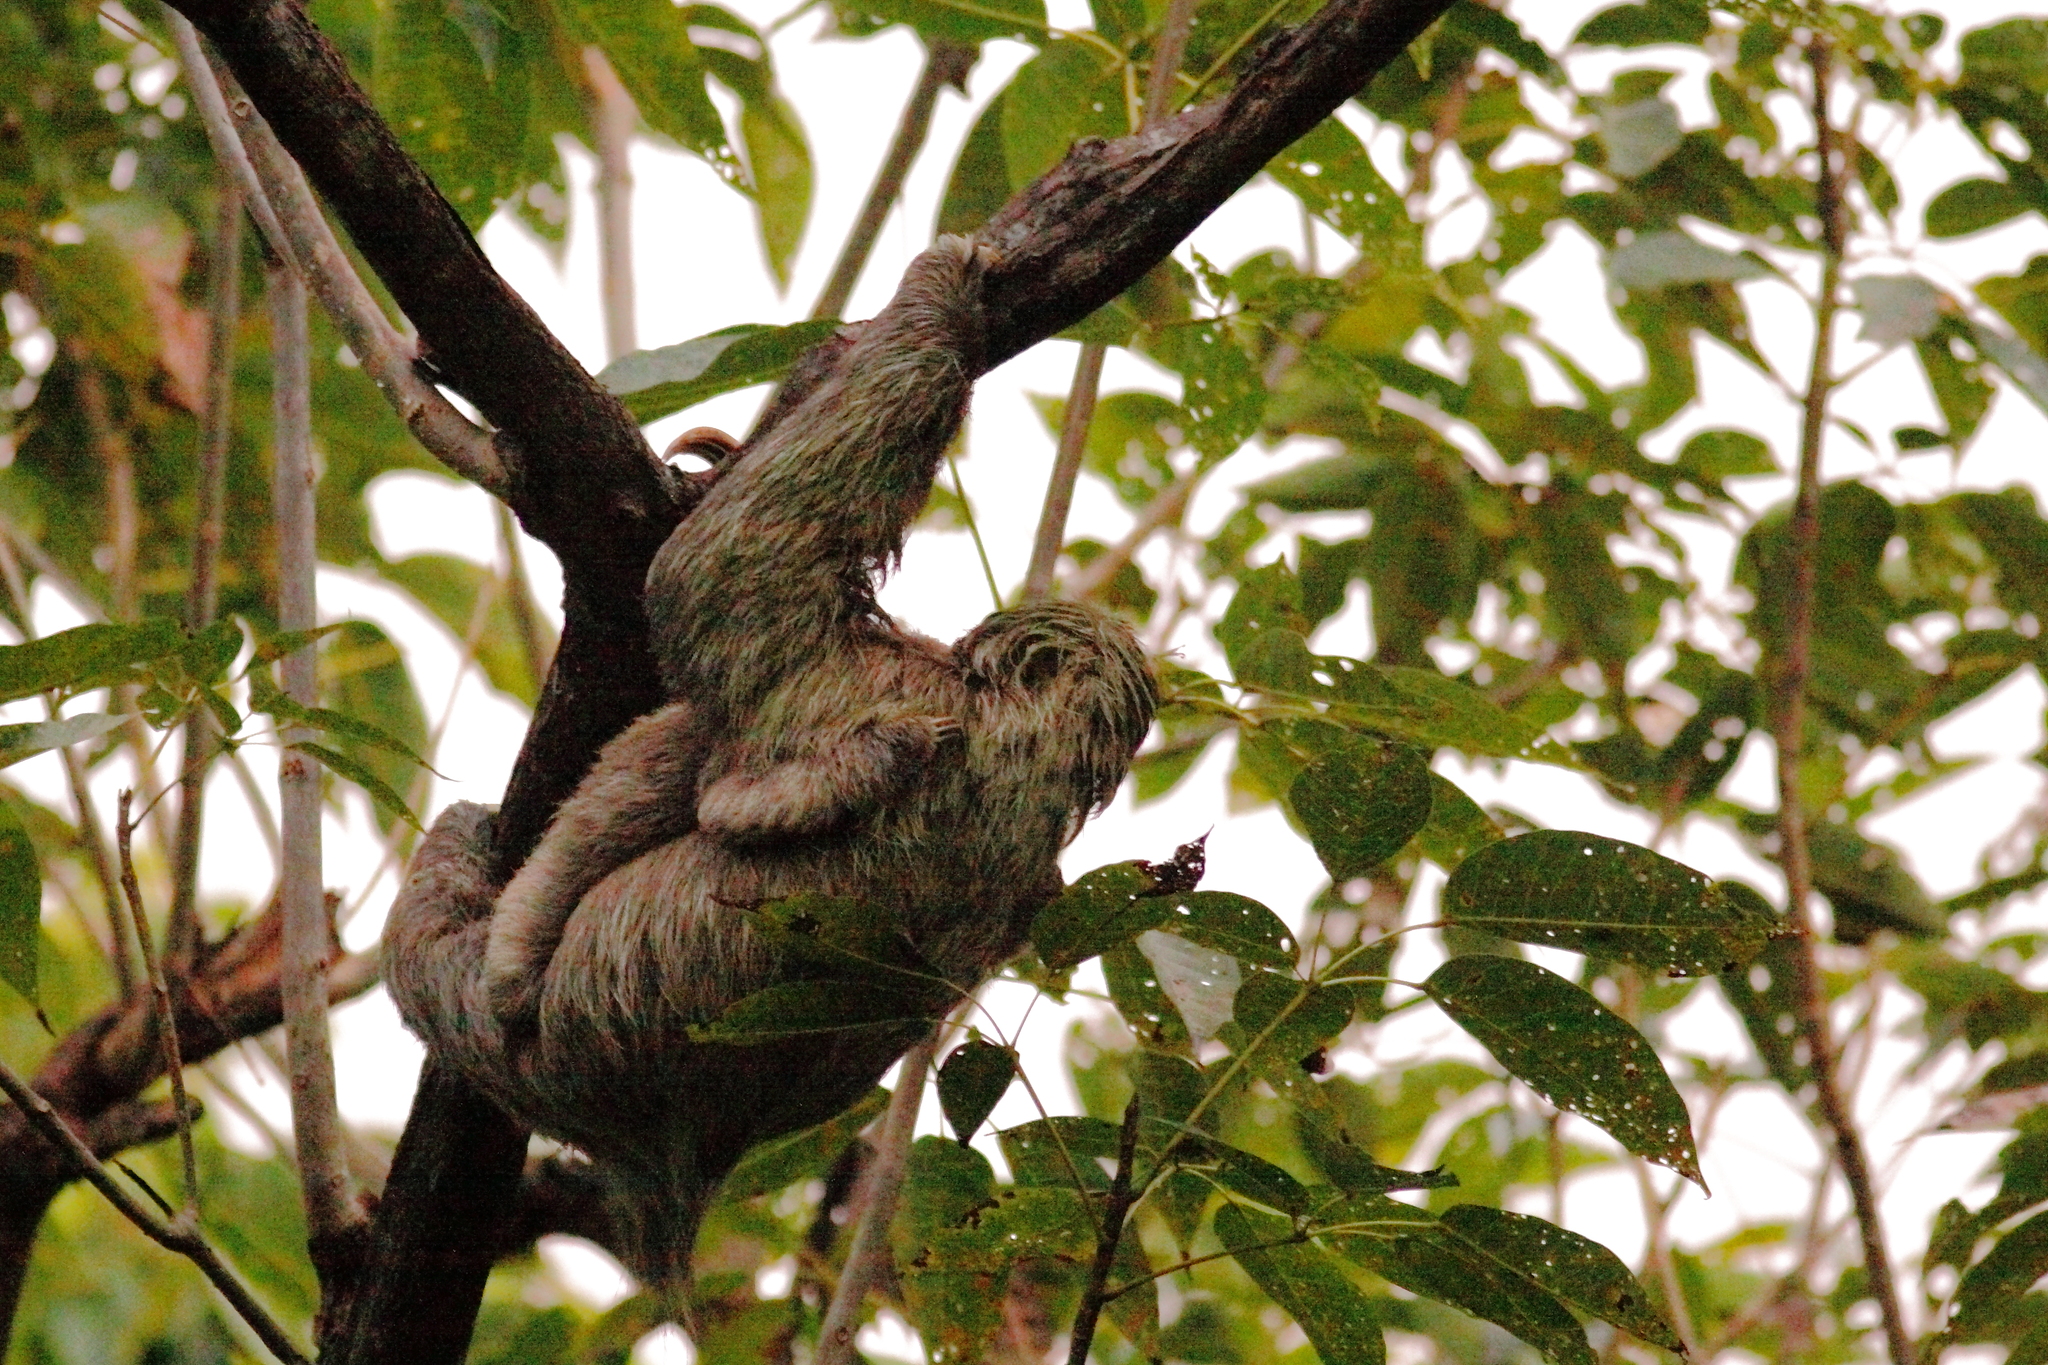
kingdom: Animalia
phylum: Chordata
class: Mammalia
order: Pilosa
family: Bradypodidae
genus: Bradypus
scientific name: Bradypus variegatus
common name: Brown-throated three-toed sloth
